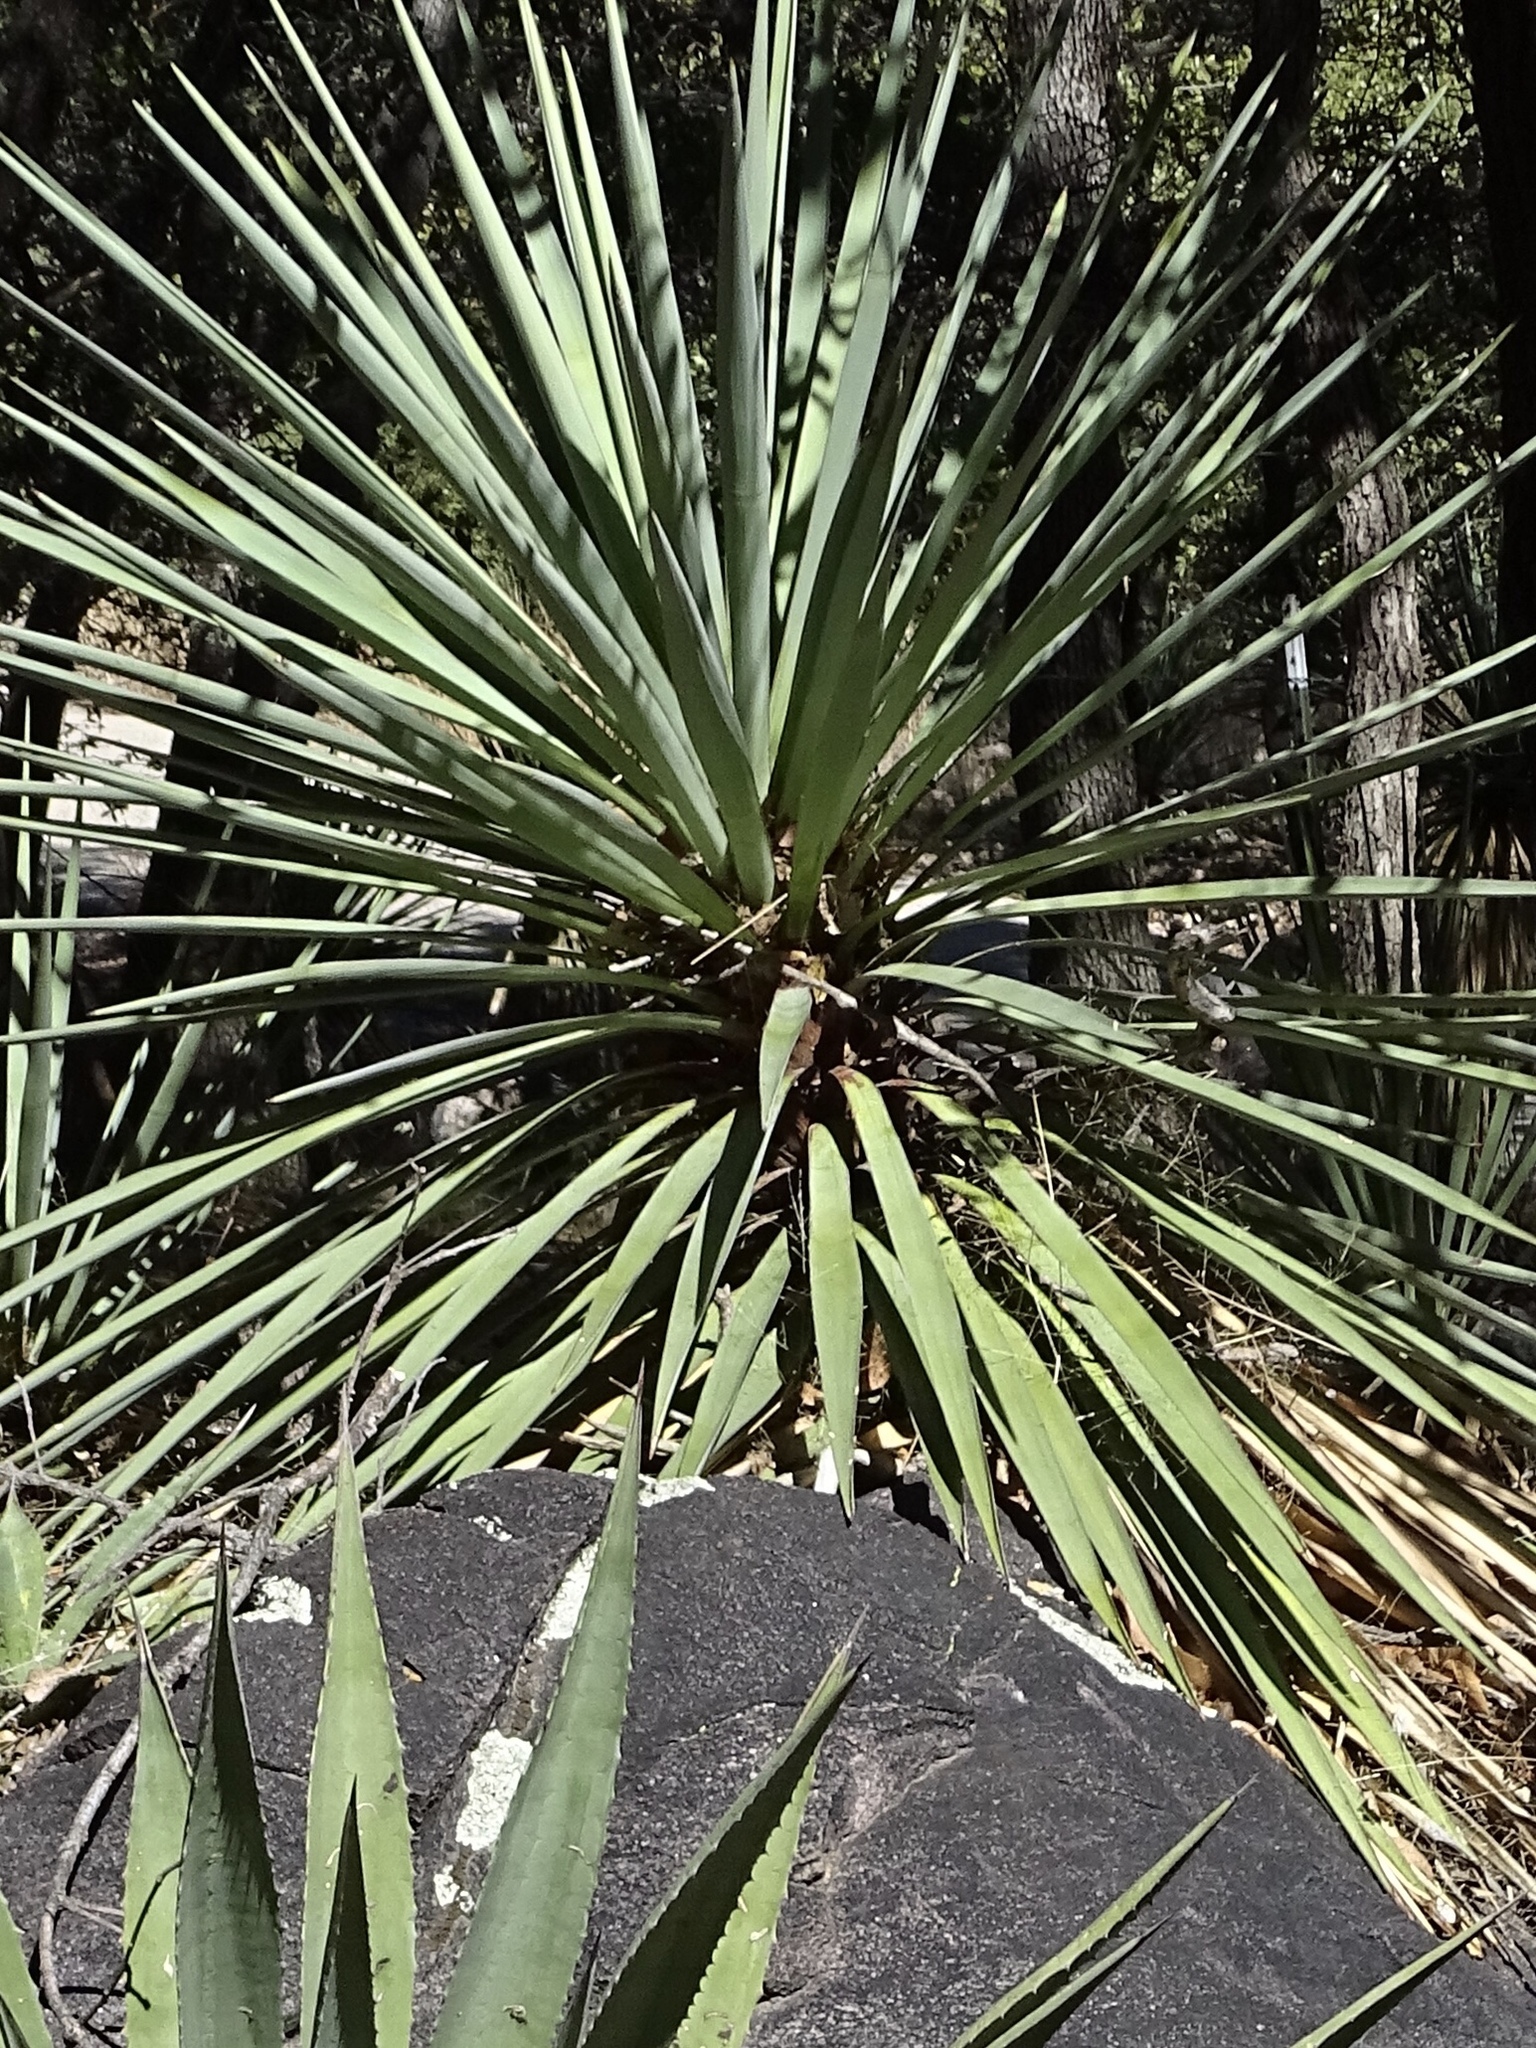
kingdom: Plantae
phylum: Tracheophyta
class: Liliopsida
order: Asparagales
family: Asparagaceae
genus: Yucca
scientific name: Yucca madrensis
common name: Hoary yucca
